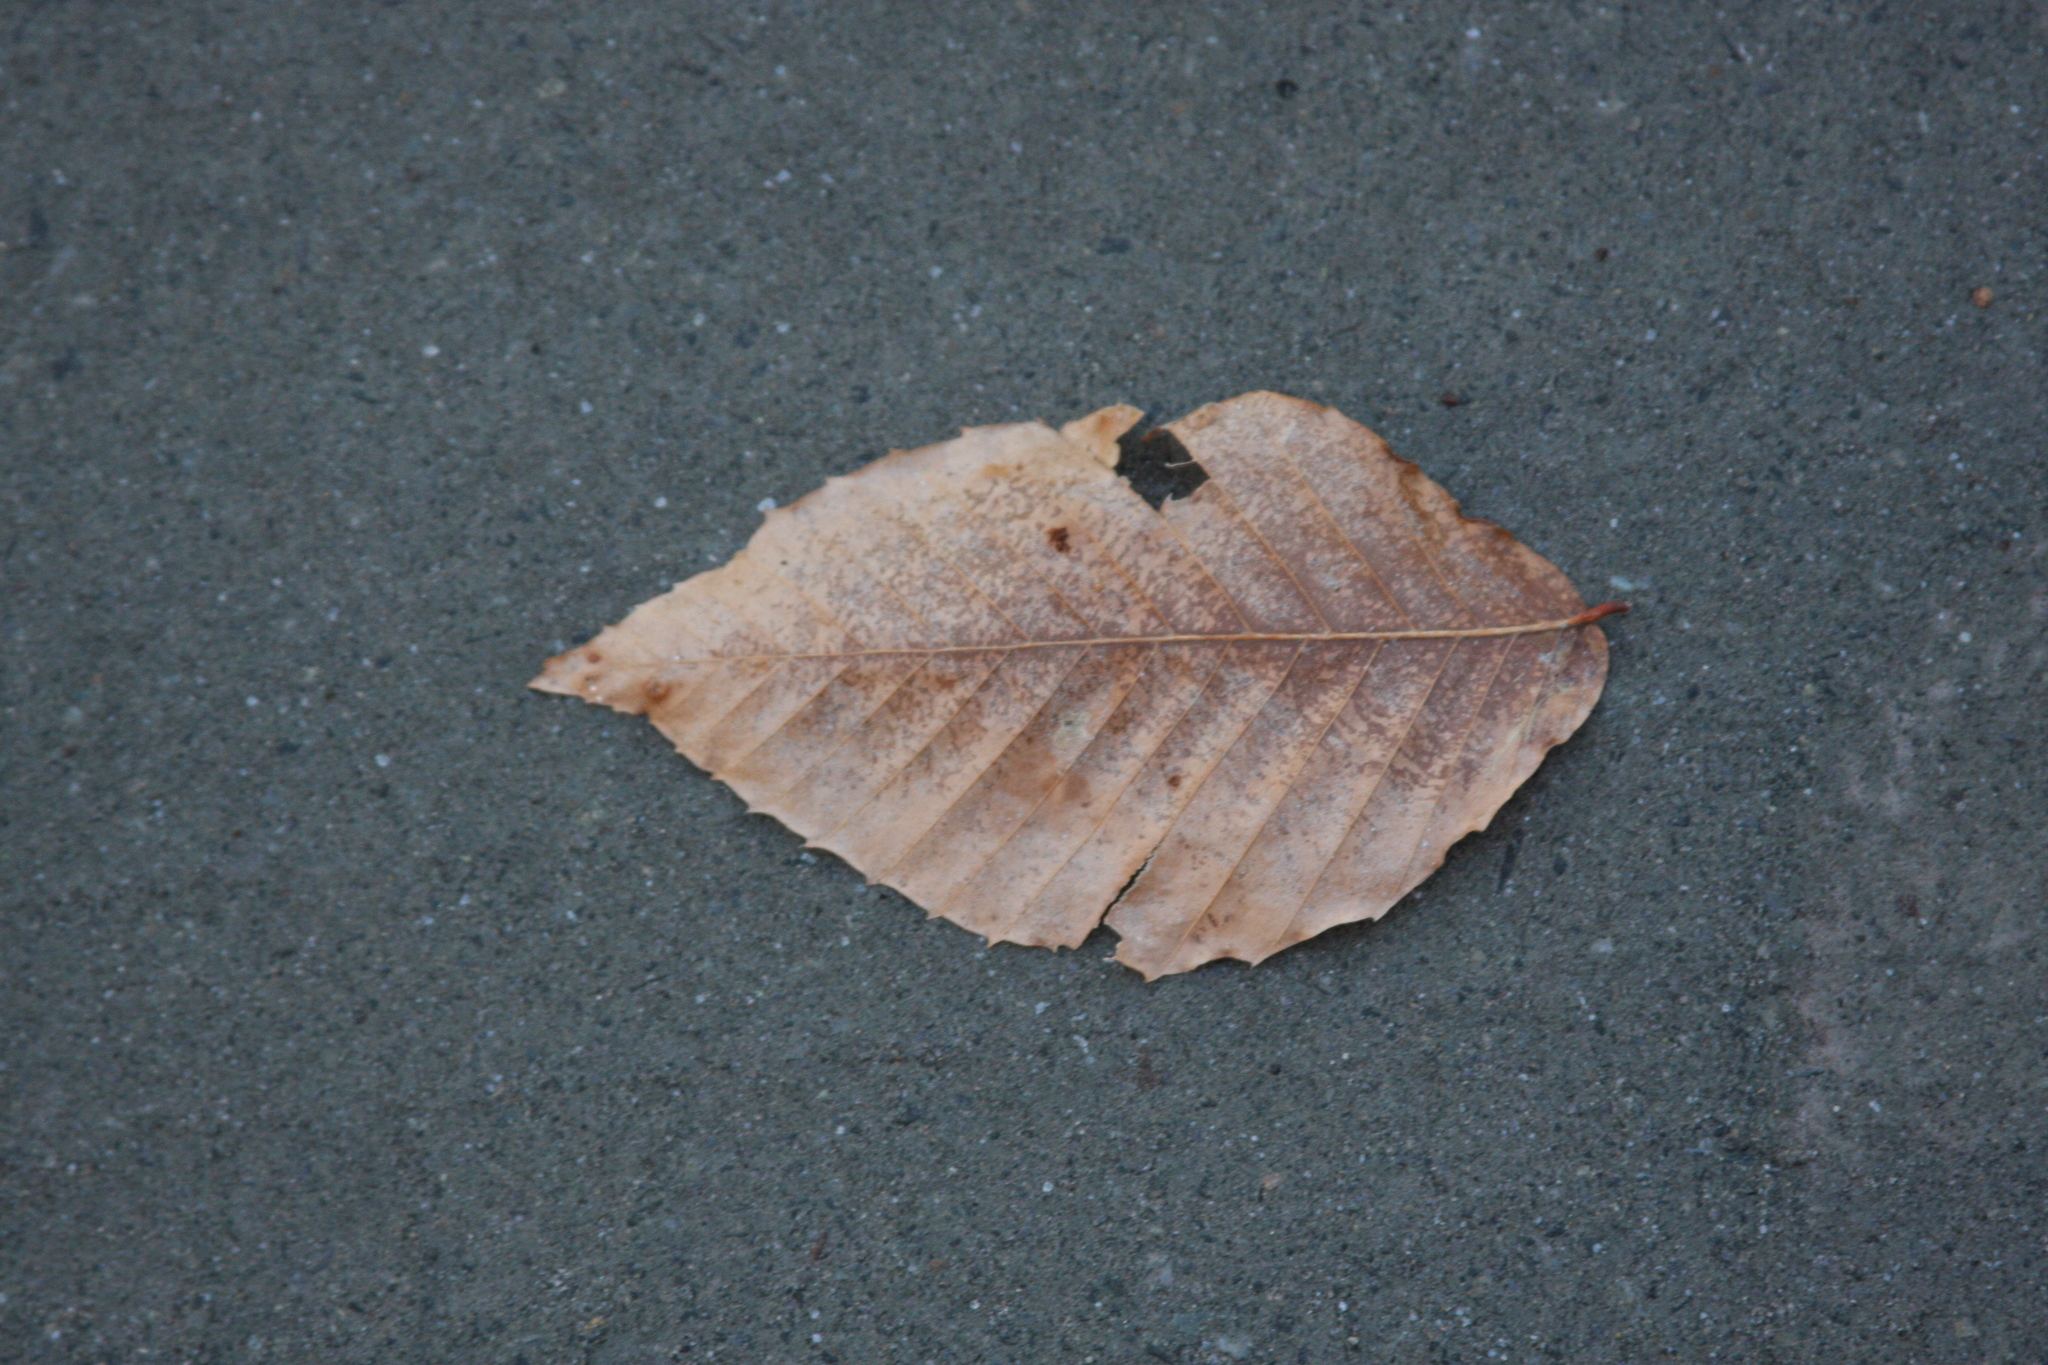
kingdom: Plantae
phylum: Tracheophyta
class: Magnoliopsida
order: Fagales
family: Fagaceae
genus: Fagus
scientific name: Fagus grandifolia
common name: American beech
